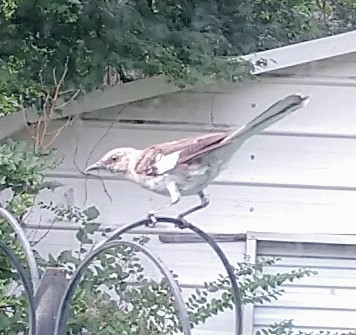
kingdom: Animalia
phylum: Chordata
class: Aves
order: Passeriformes
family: Mimidae
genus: Mimus
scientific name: Mimus polyglottos
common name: Northern mockingbird
